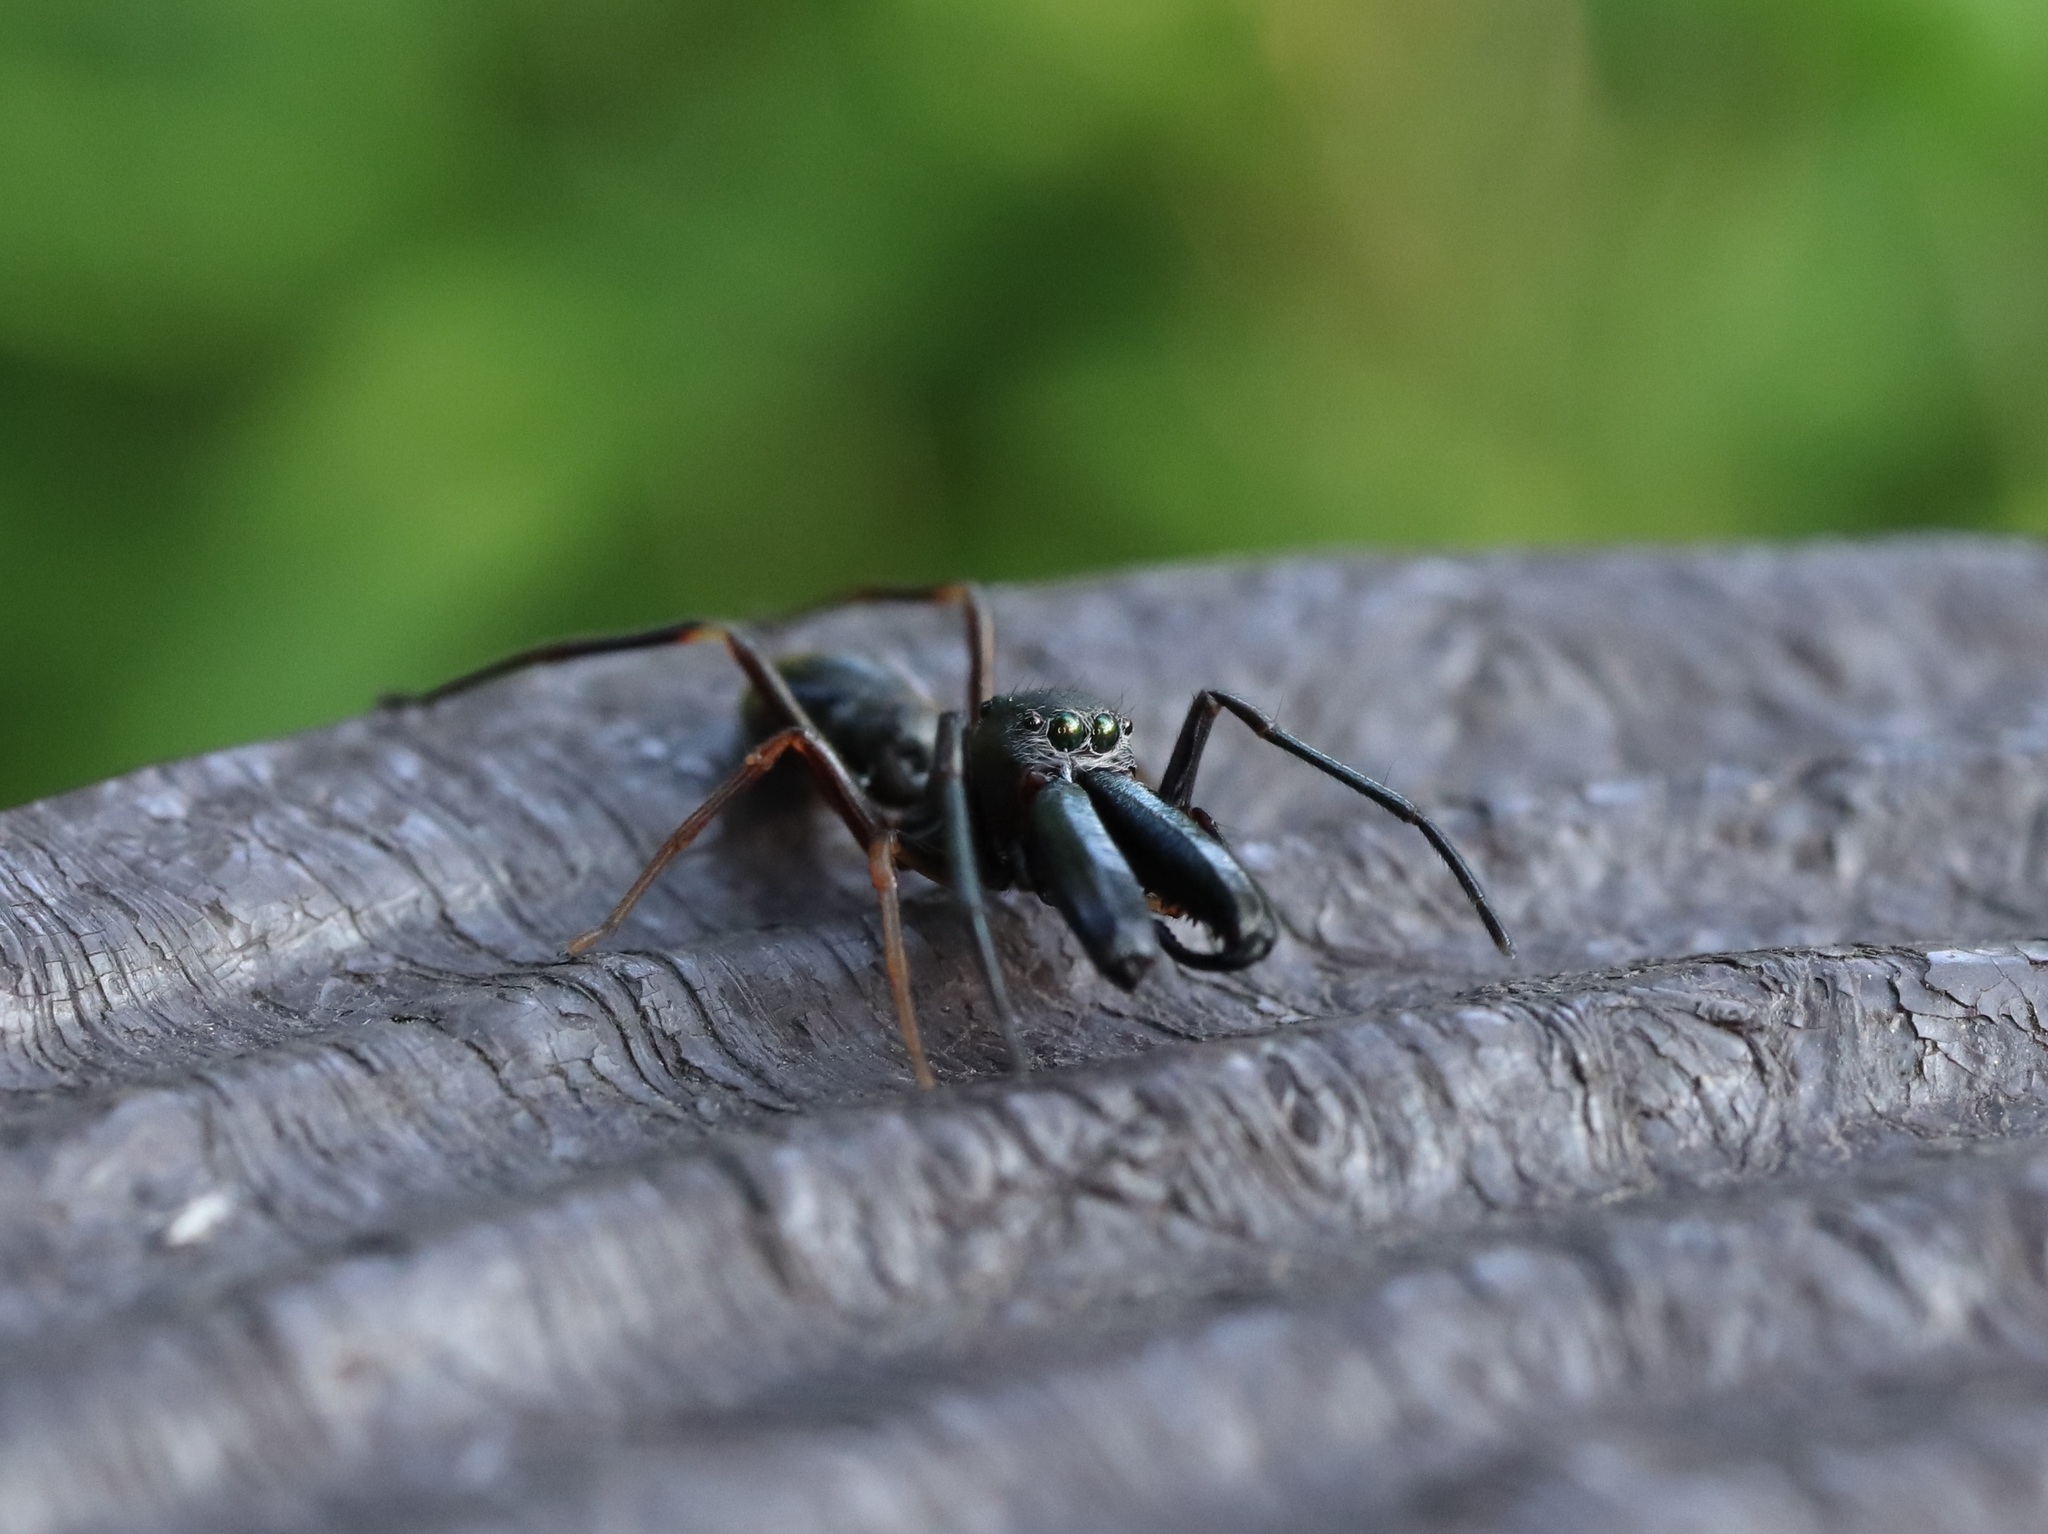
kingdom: Animalia
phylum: Arthropoda
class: Arachnida
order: Araneae
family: Salticidae
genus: Myrmarachne
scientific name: Myrmarachne japonica
